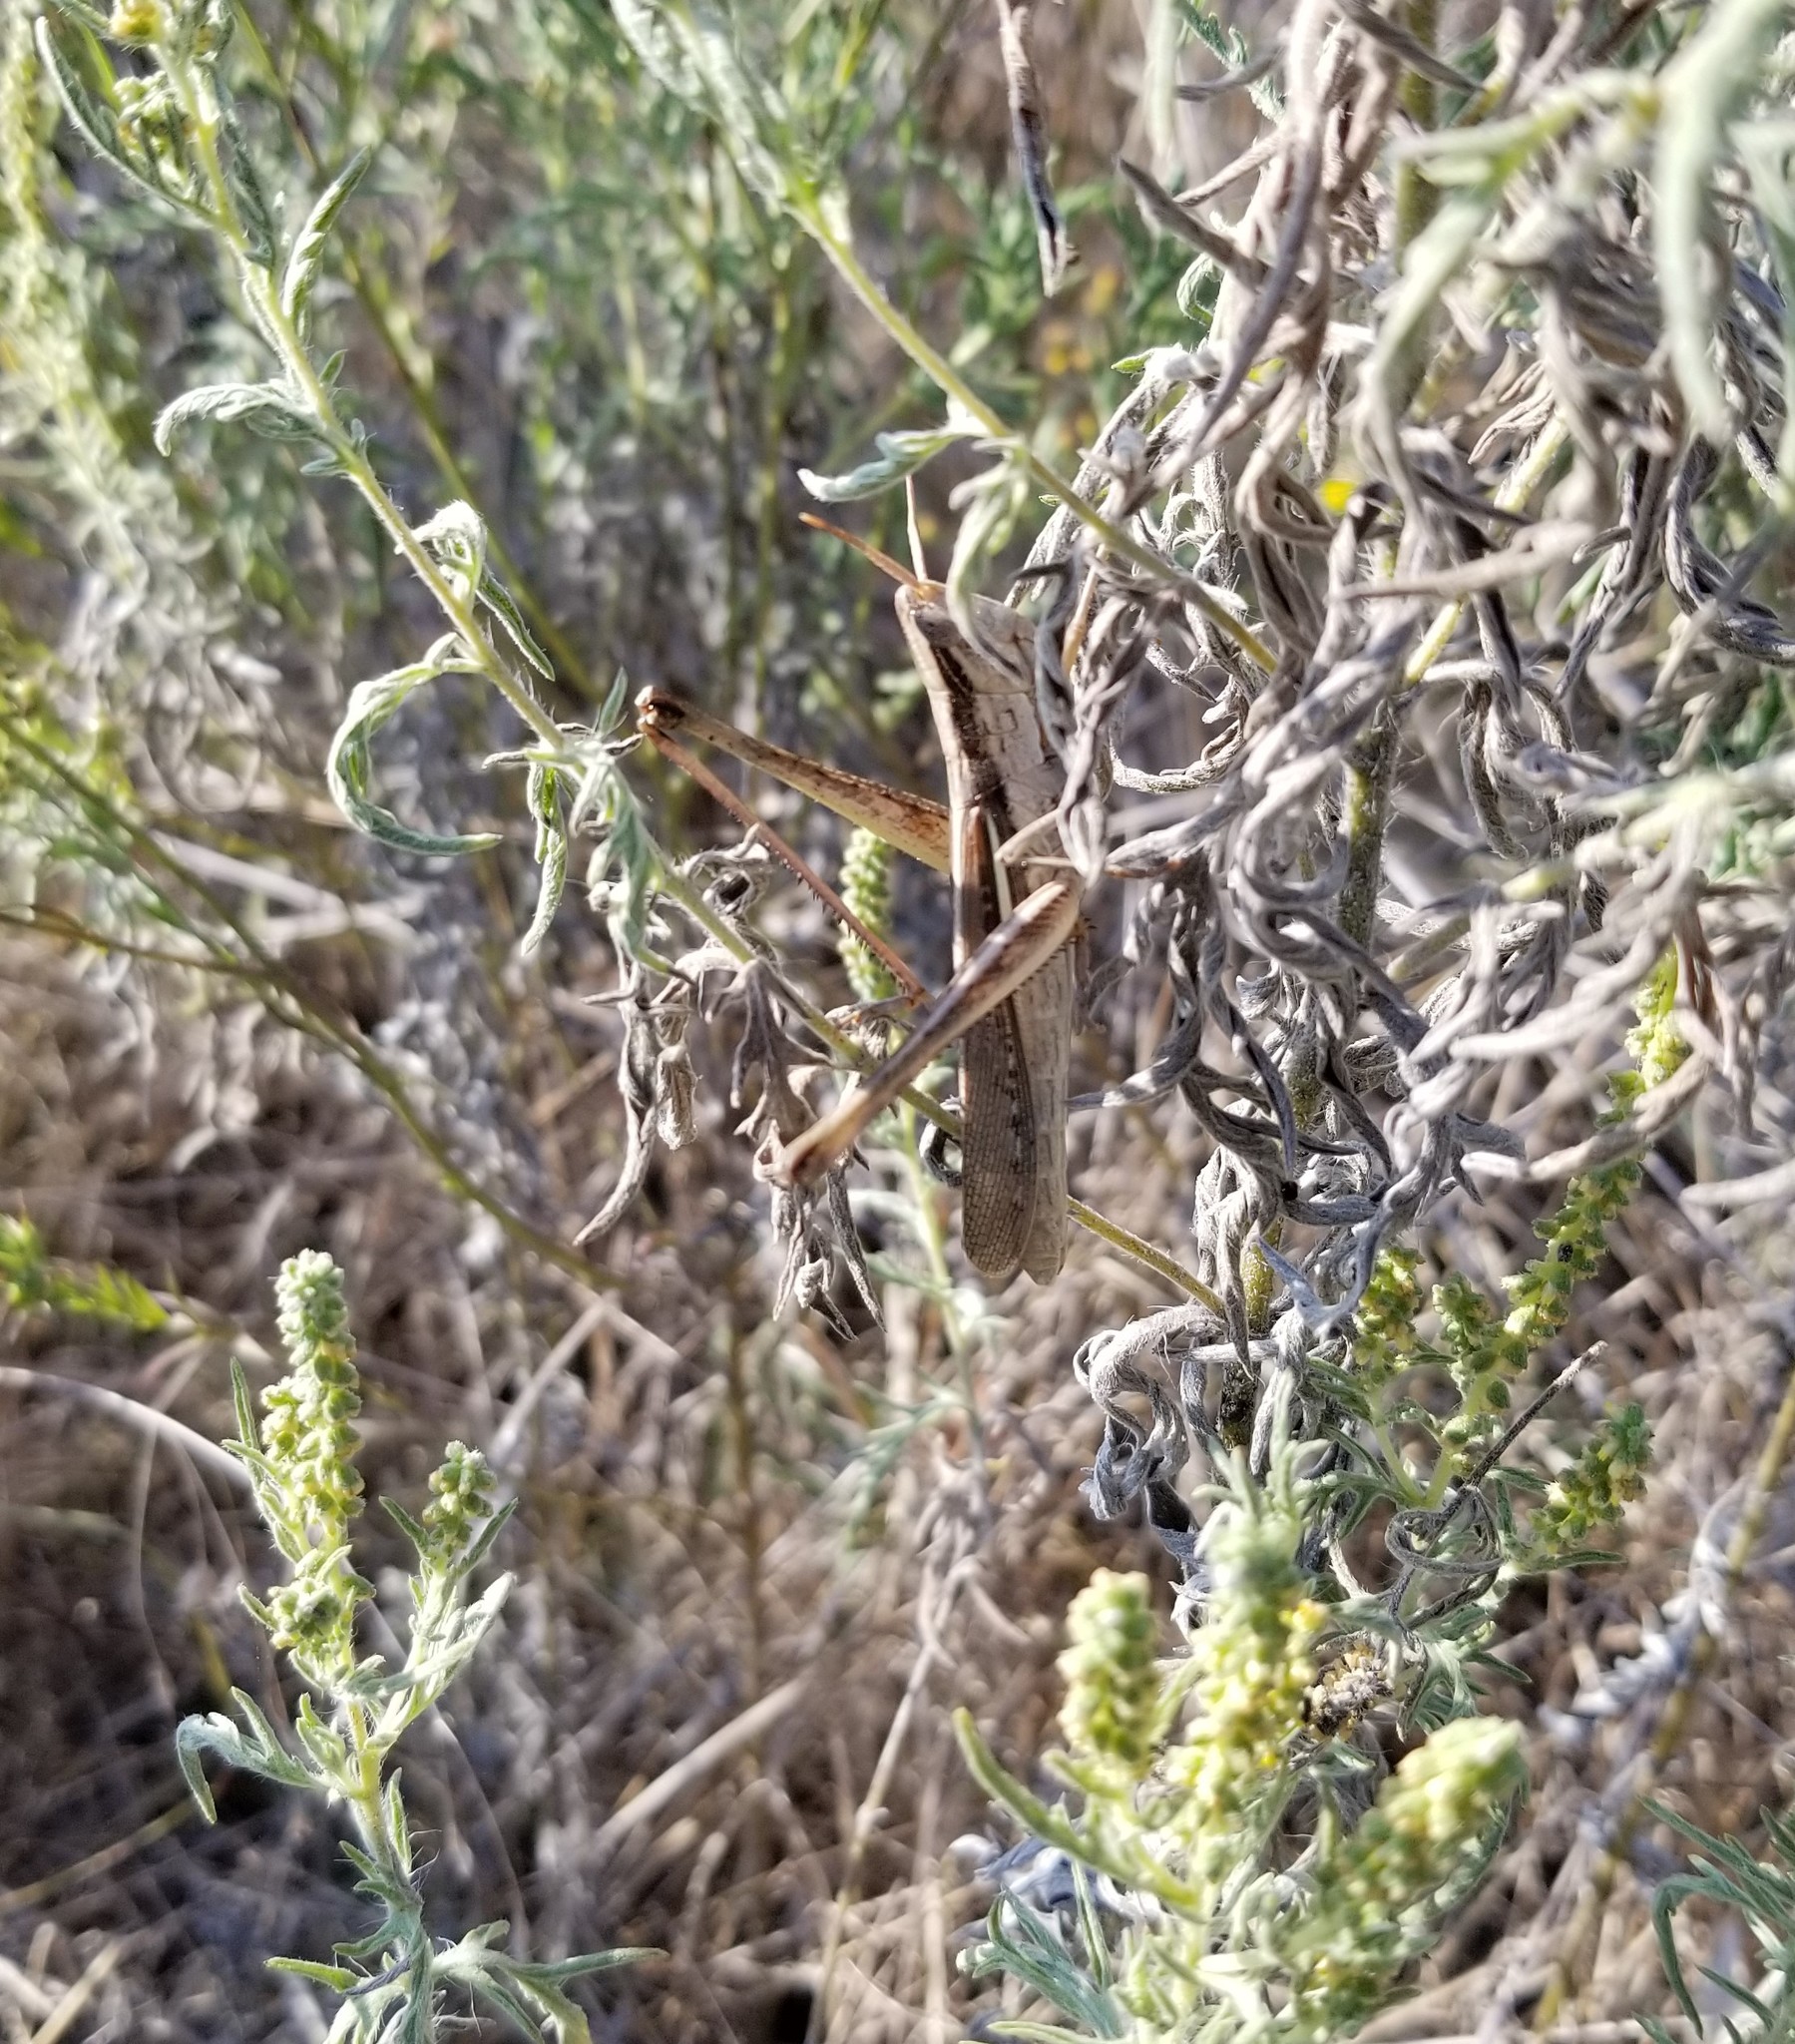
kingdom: Animalia
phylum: Arthropoda
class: Insecta
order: Orthoptera
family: Acrididae
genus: Mermiria
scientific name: Mermiria bivittata
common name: Two-striped mermiria grasshopper
